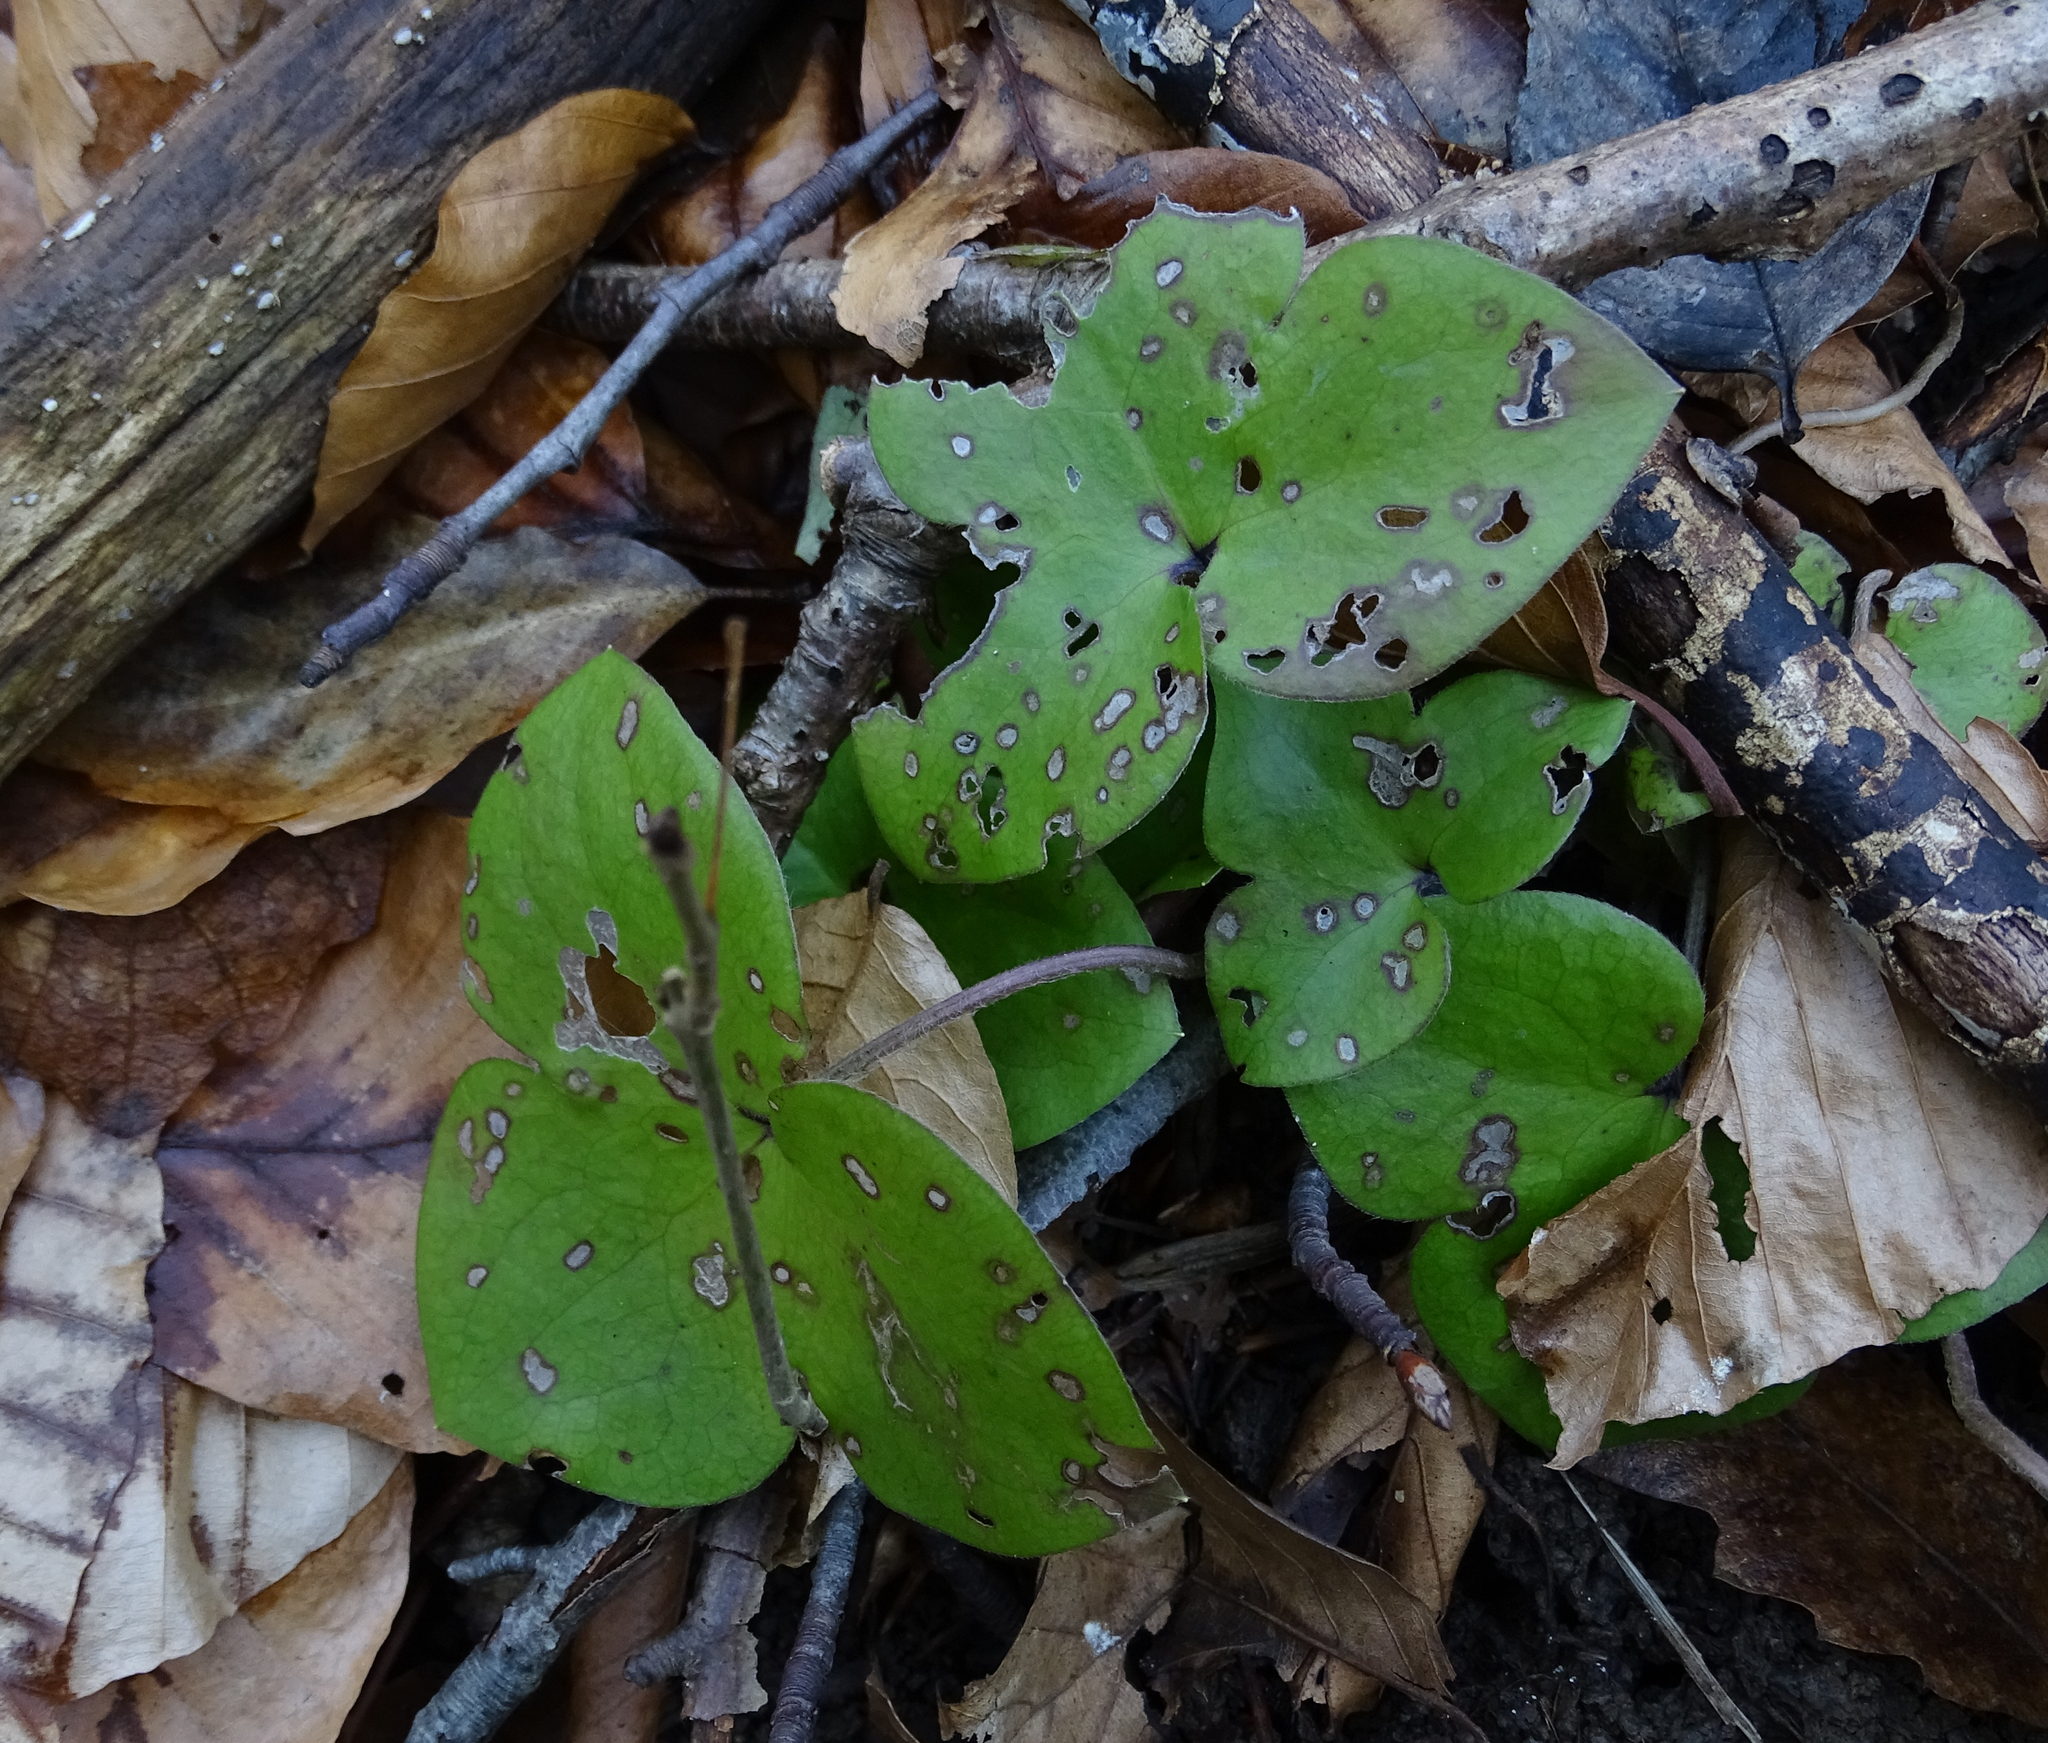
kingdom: Plantae
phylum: Tracheophyta
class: Magnoliopsida
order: Ranunculales
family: Ranunculaceae
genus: Hepatica
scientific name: Hepatica nobilis
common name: Liverleaf
